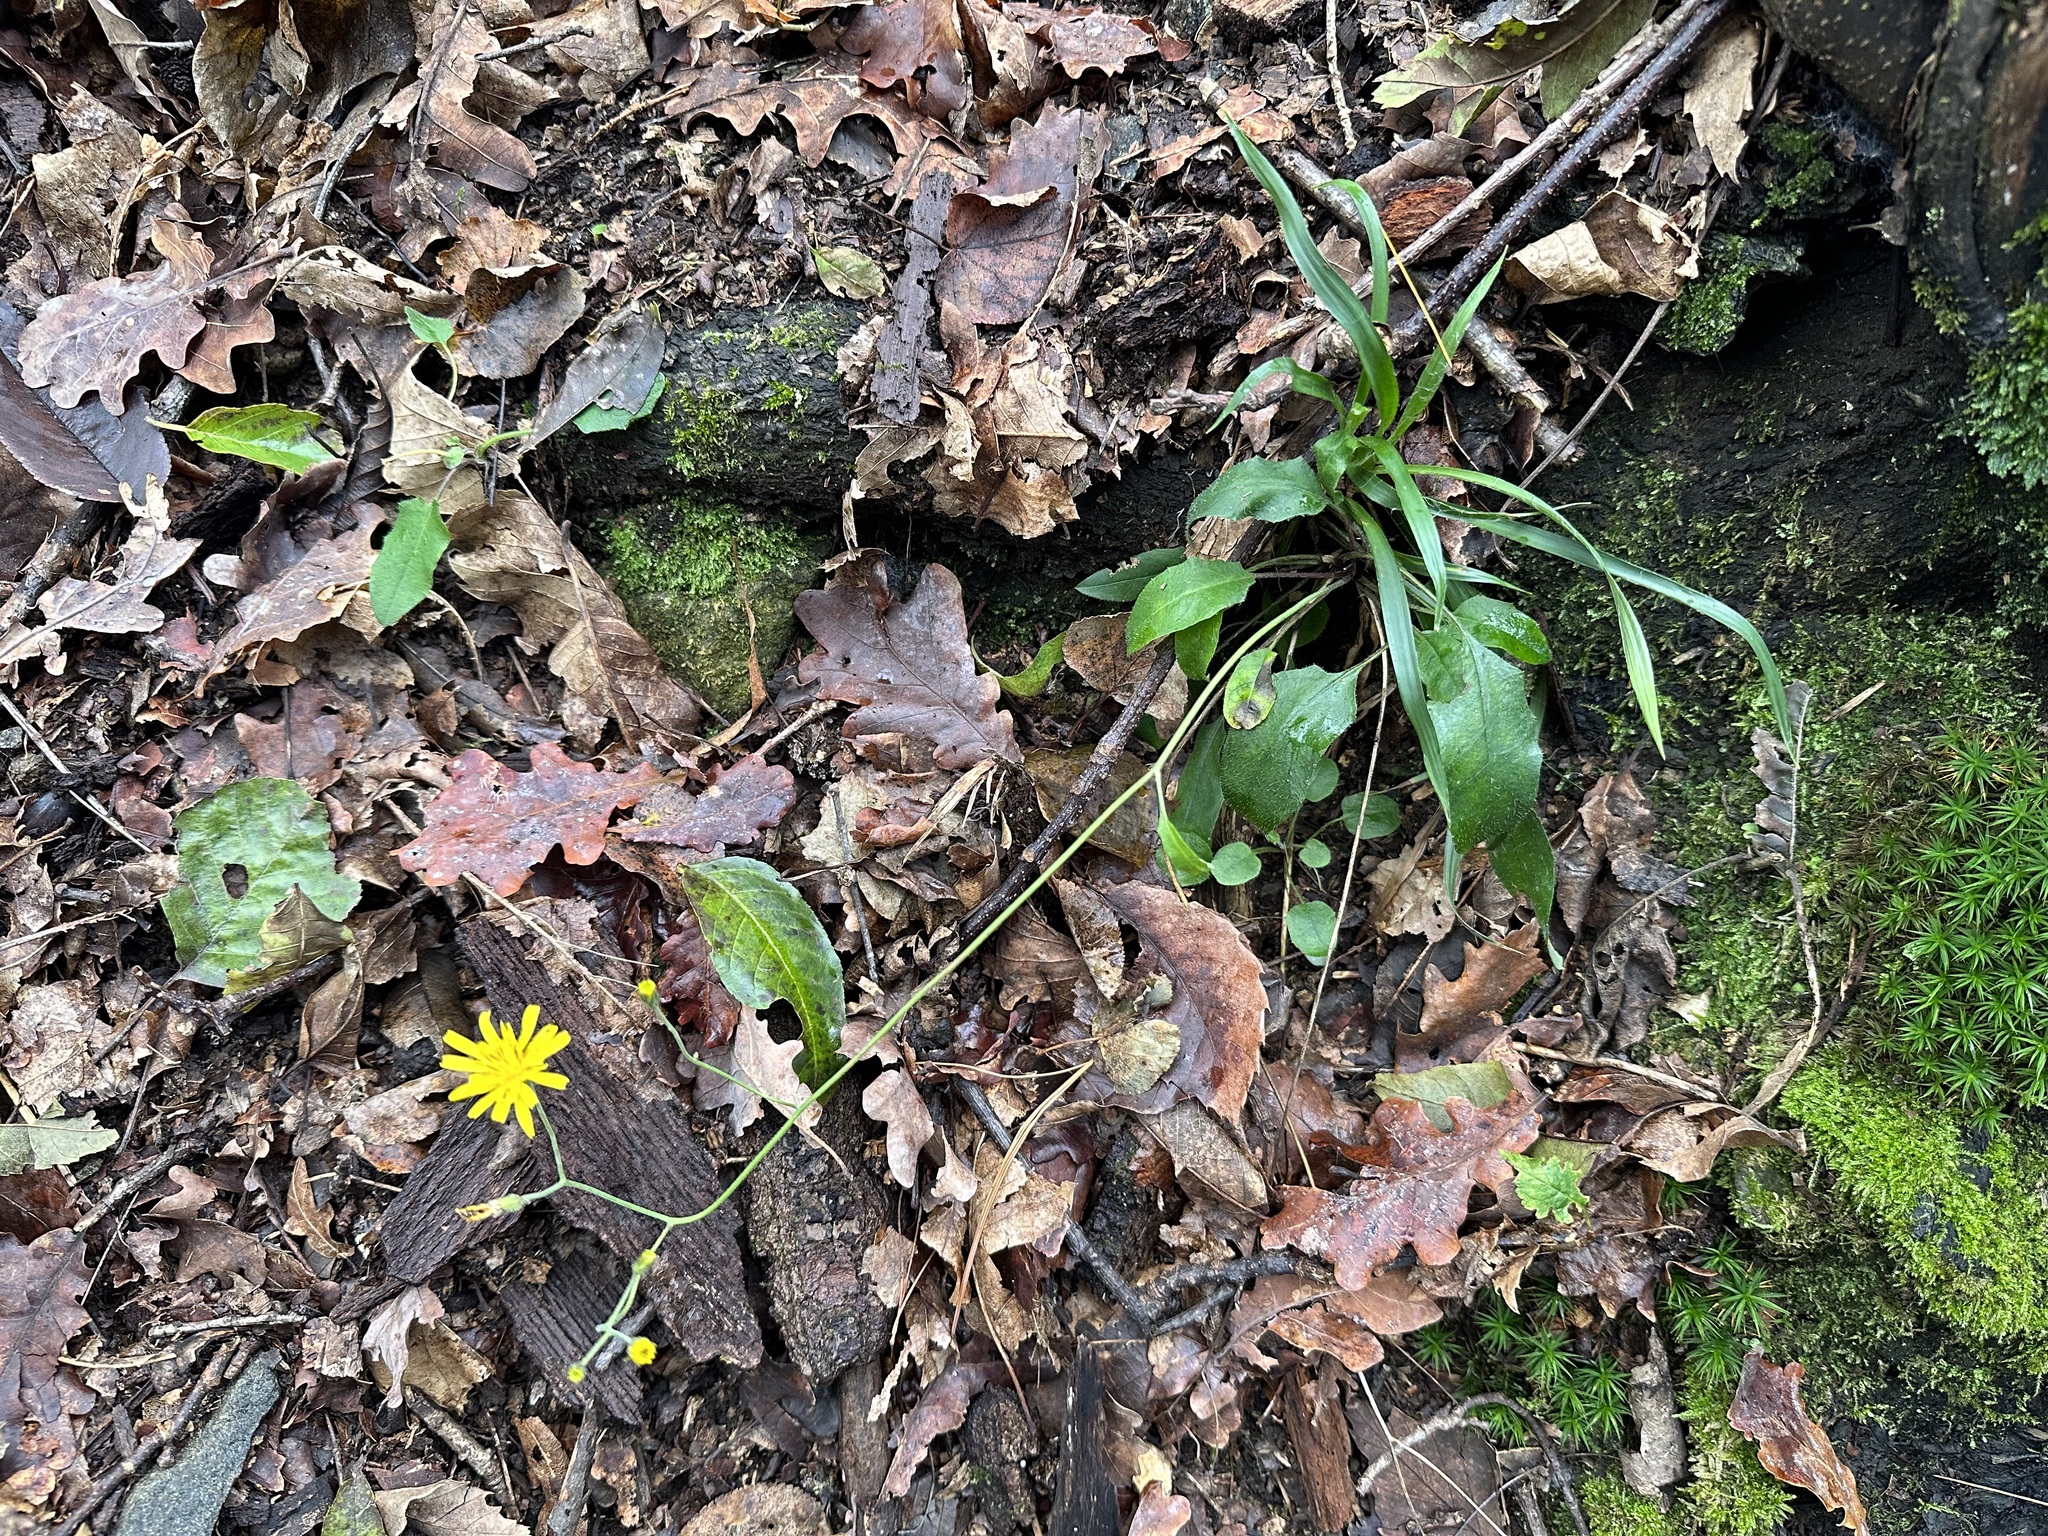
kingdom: Plantae
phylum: Tracheophyta
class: Magnoliopsida
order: Asterales
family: Asteraceae
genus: Hieracium
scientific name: Hieracium murorum
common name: Wall hawkweed
